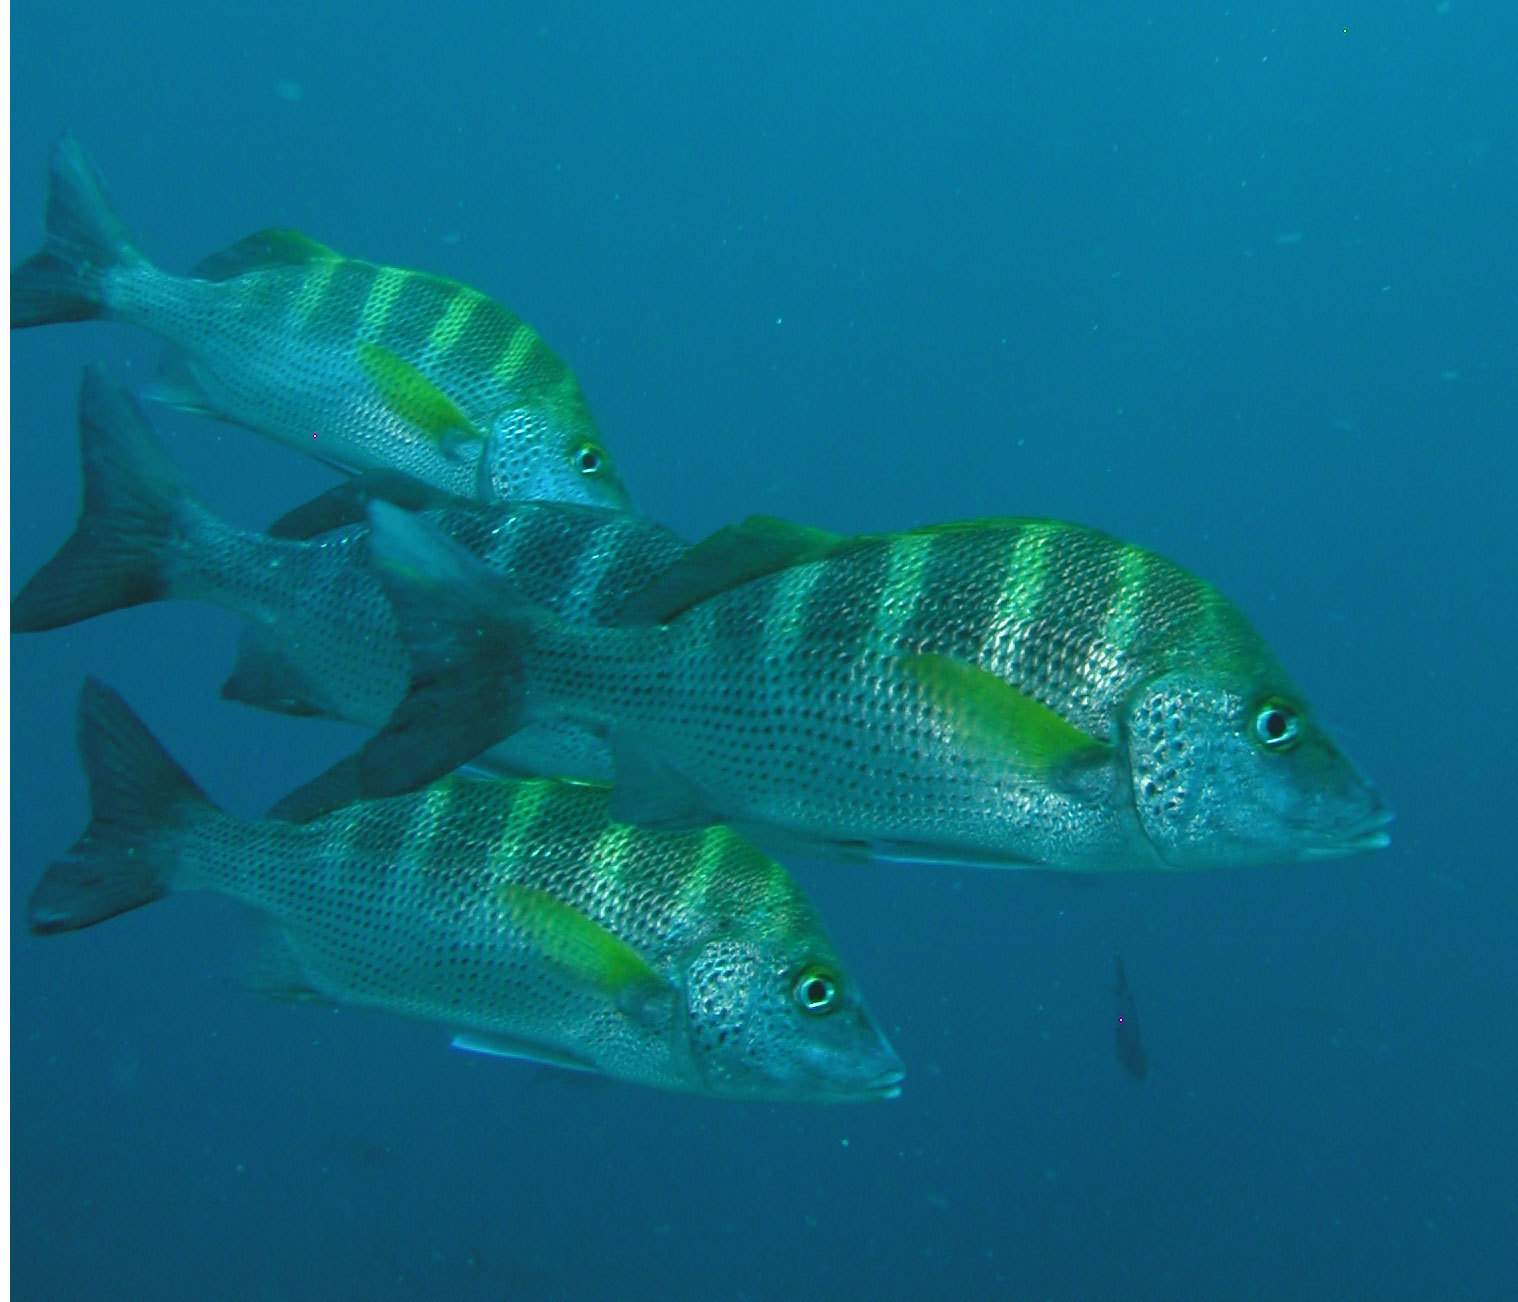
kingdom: Animalia
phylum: Chordata
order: Perciformes
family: Haemulidae
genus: Haemulon
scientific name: Haemulon sexfasciatum
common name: Graybar grunt
